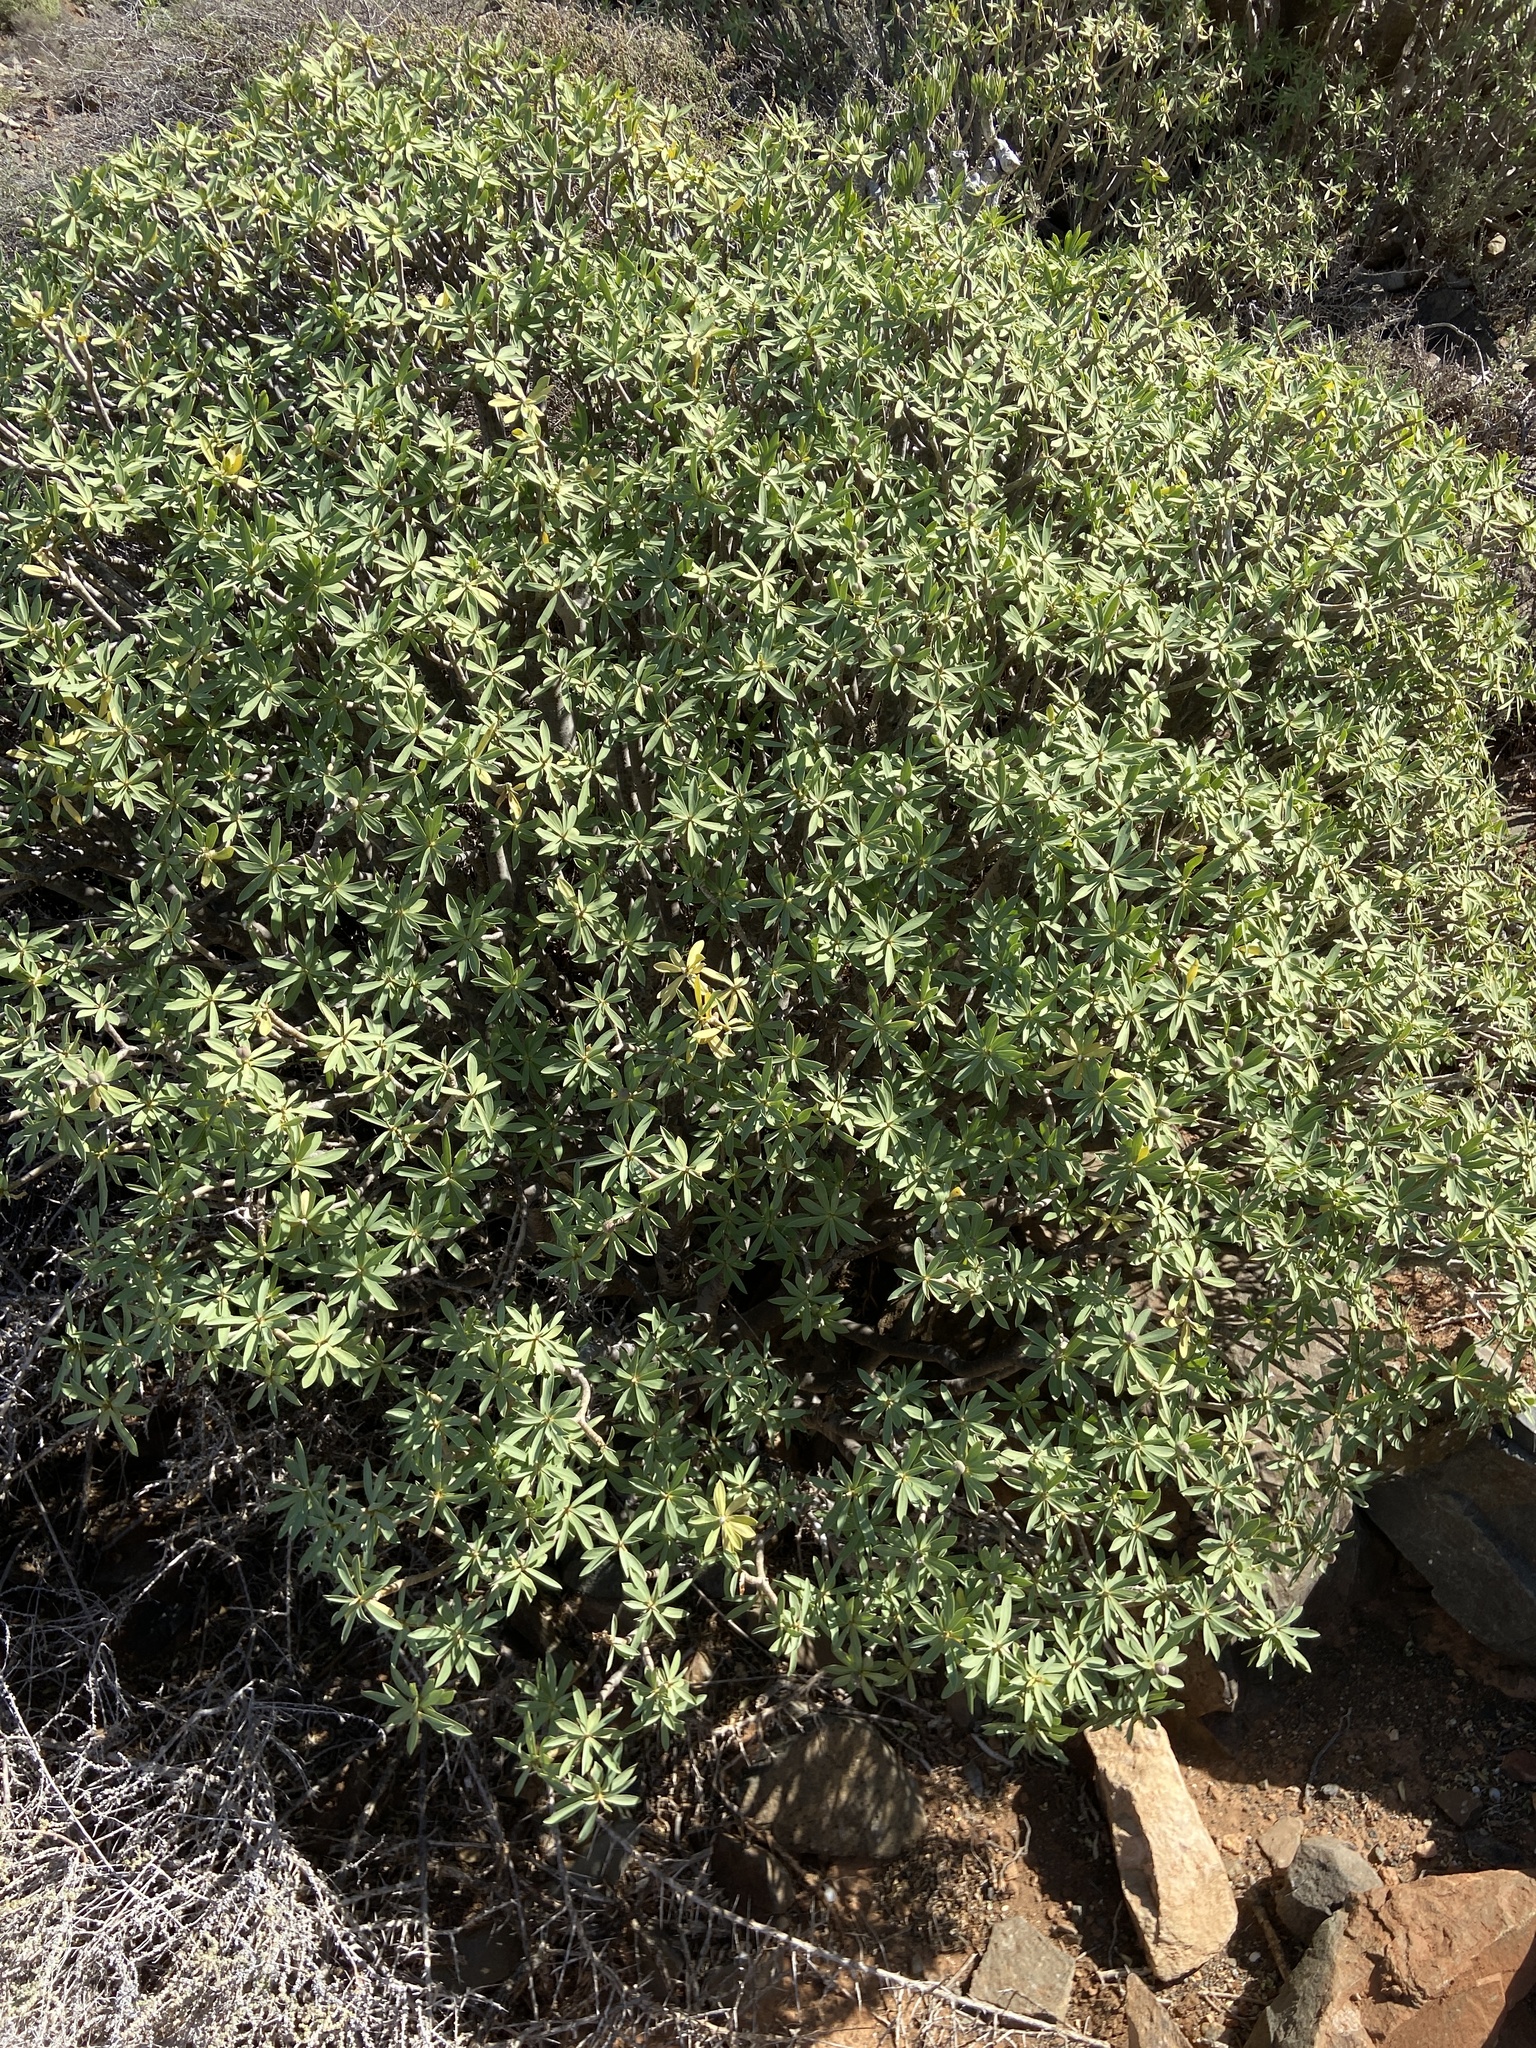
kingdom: Plantae
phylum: Tracheophyta
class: Magnoliopsida
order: Malpighiales
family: Euphorbiaceae
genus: Euphorbia
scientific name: Euphorbia balsamifera
